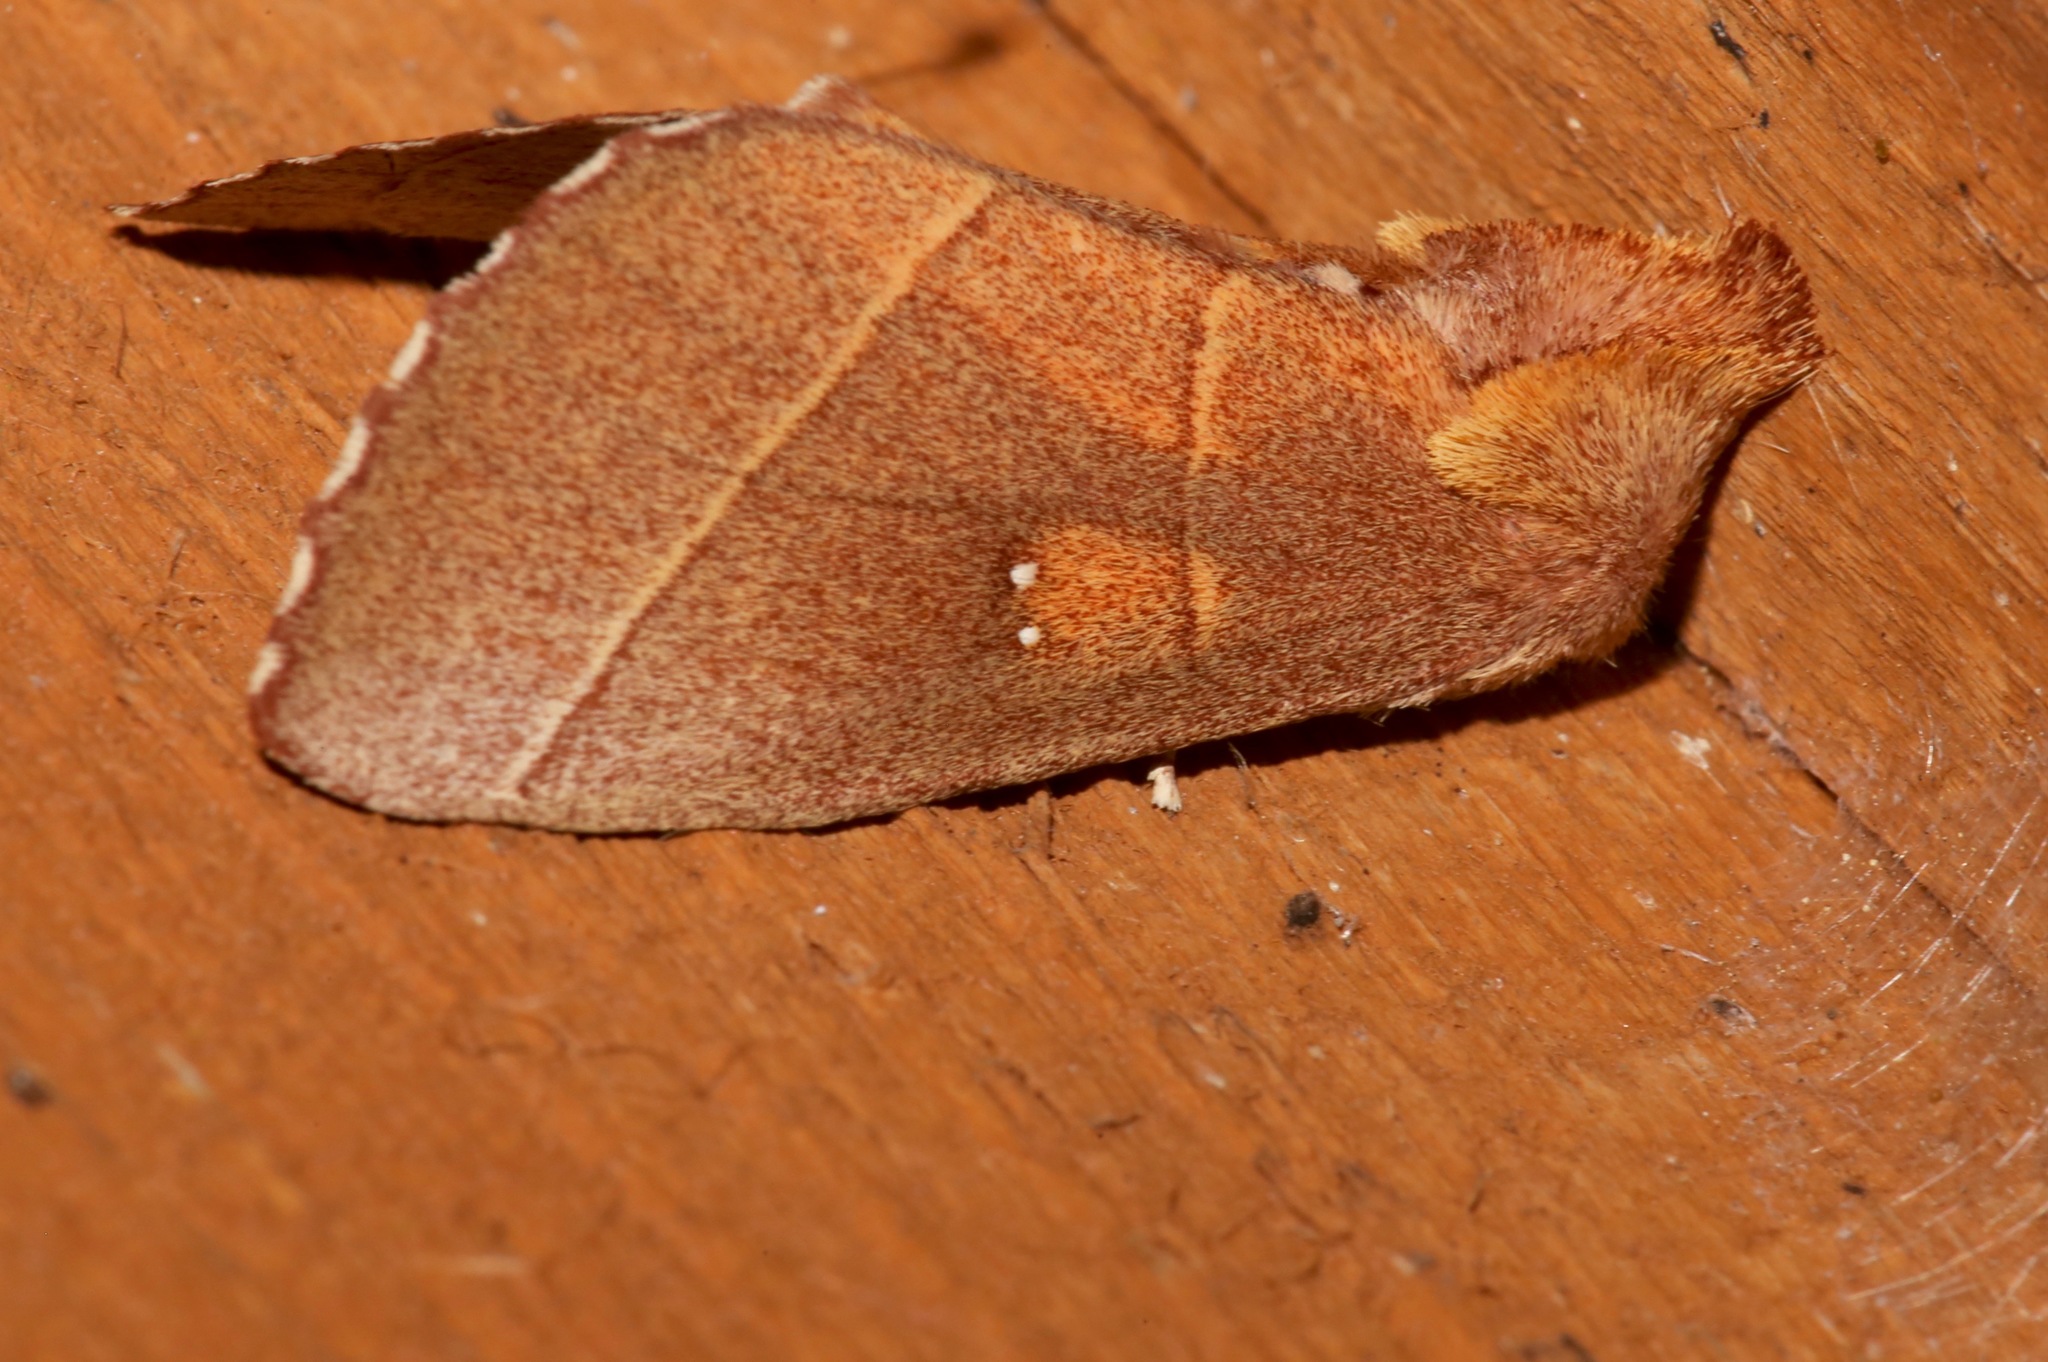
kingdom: Animalia
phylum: Arthropoda
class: Insecta
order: Lepidoptera
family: Notodontidae
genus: Nadata
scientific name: Nadata gibbosa
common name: White-dotted prominent
